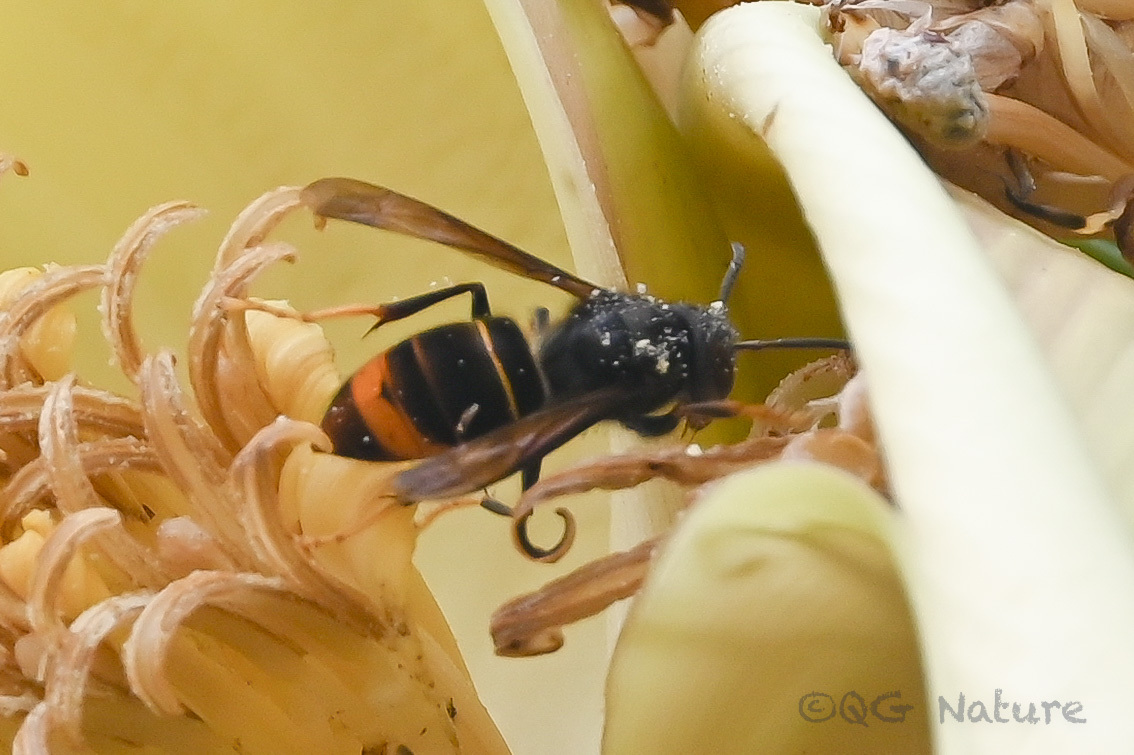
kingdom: Animalia
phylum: Arthropoda
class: Insecta
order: Hymenoptera
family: Vespidae
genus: Vespa
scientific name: Vespa velutina
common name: Asian hornet
